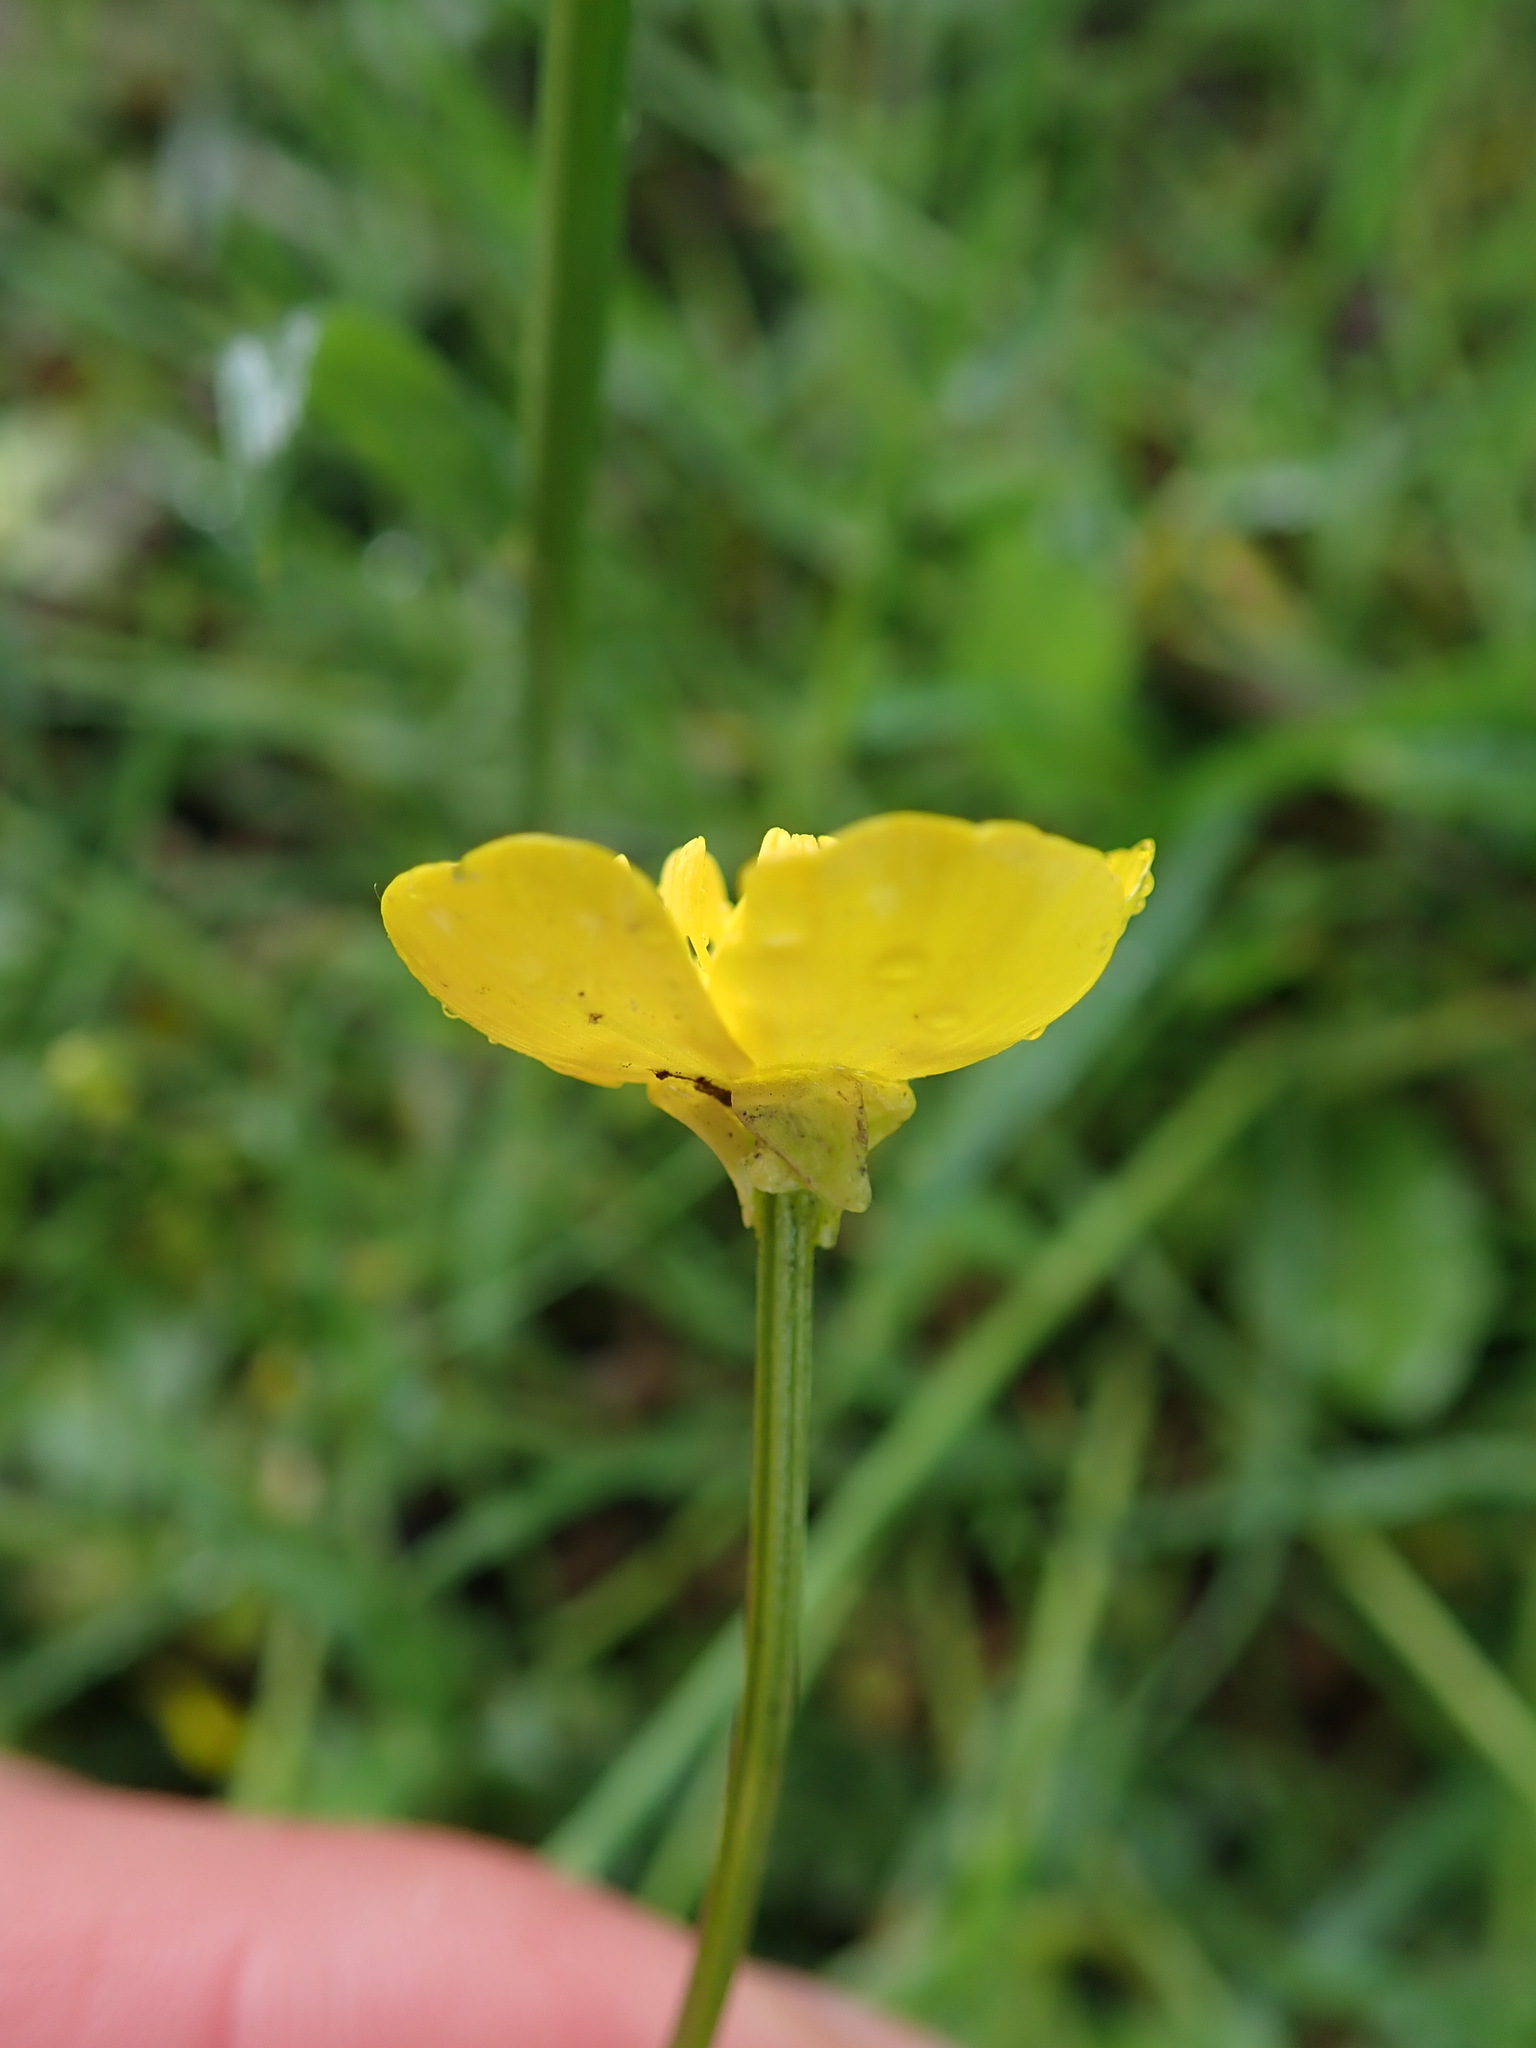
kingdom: Plantae
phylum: Tracheophyta
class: Magnoliopsida
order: Ranunculales
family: Ranunculaceae
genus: Ranunculus
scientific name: Ranunculus bulbosus
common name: Bulbous buttercup
